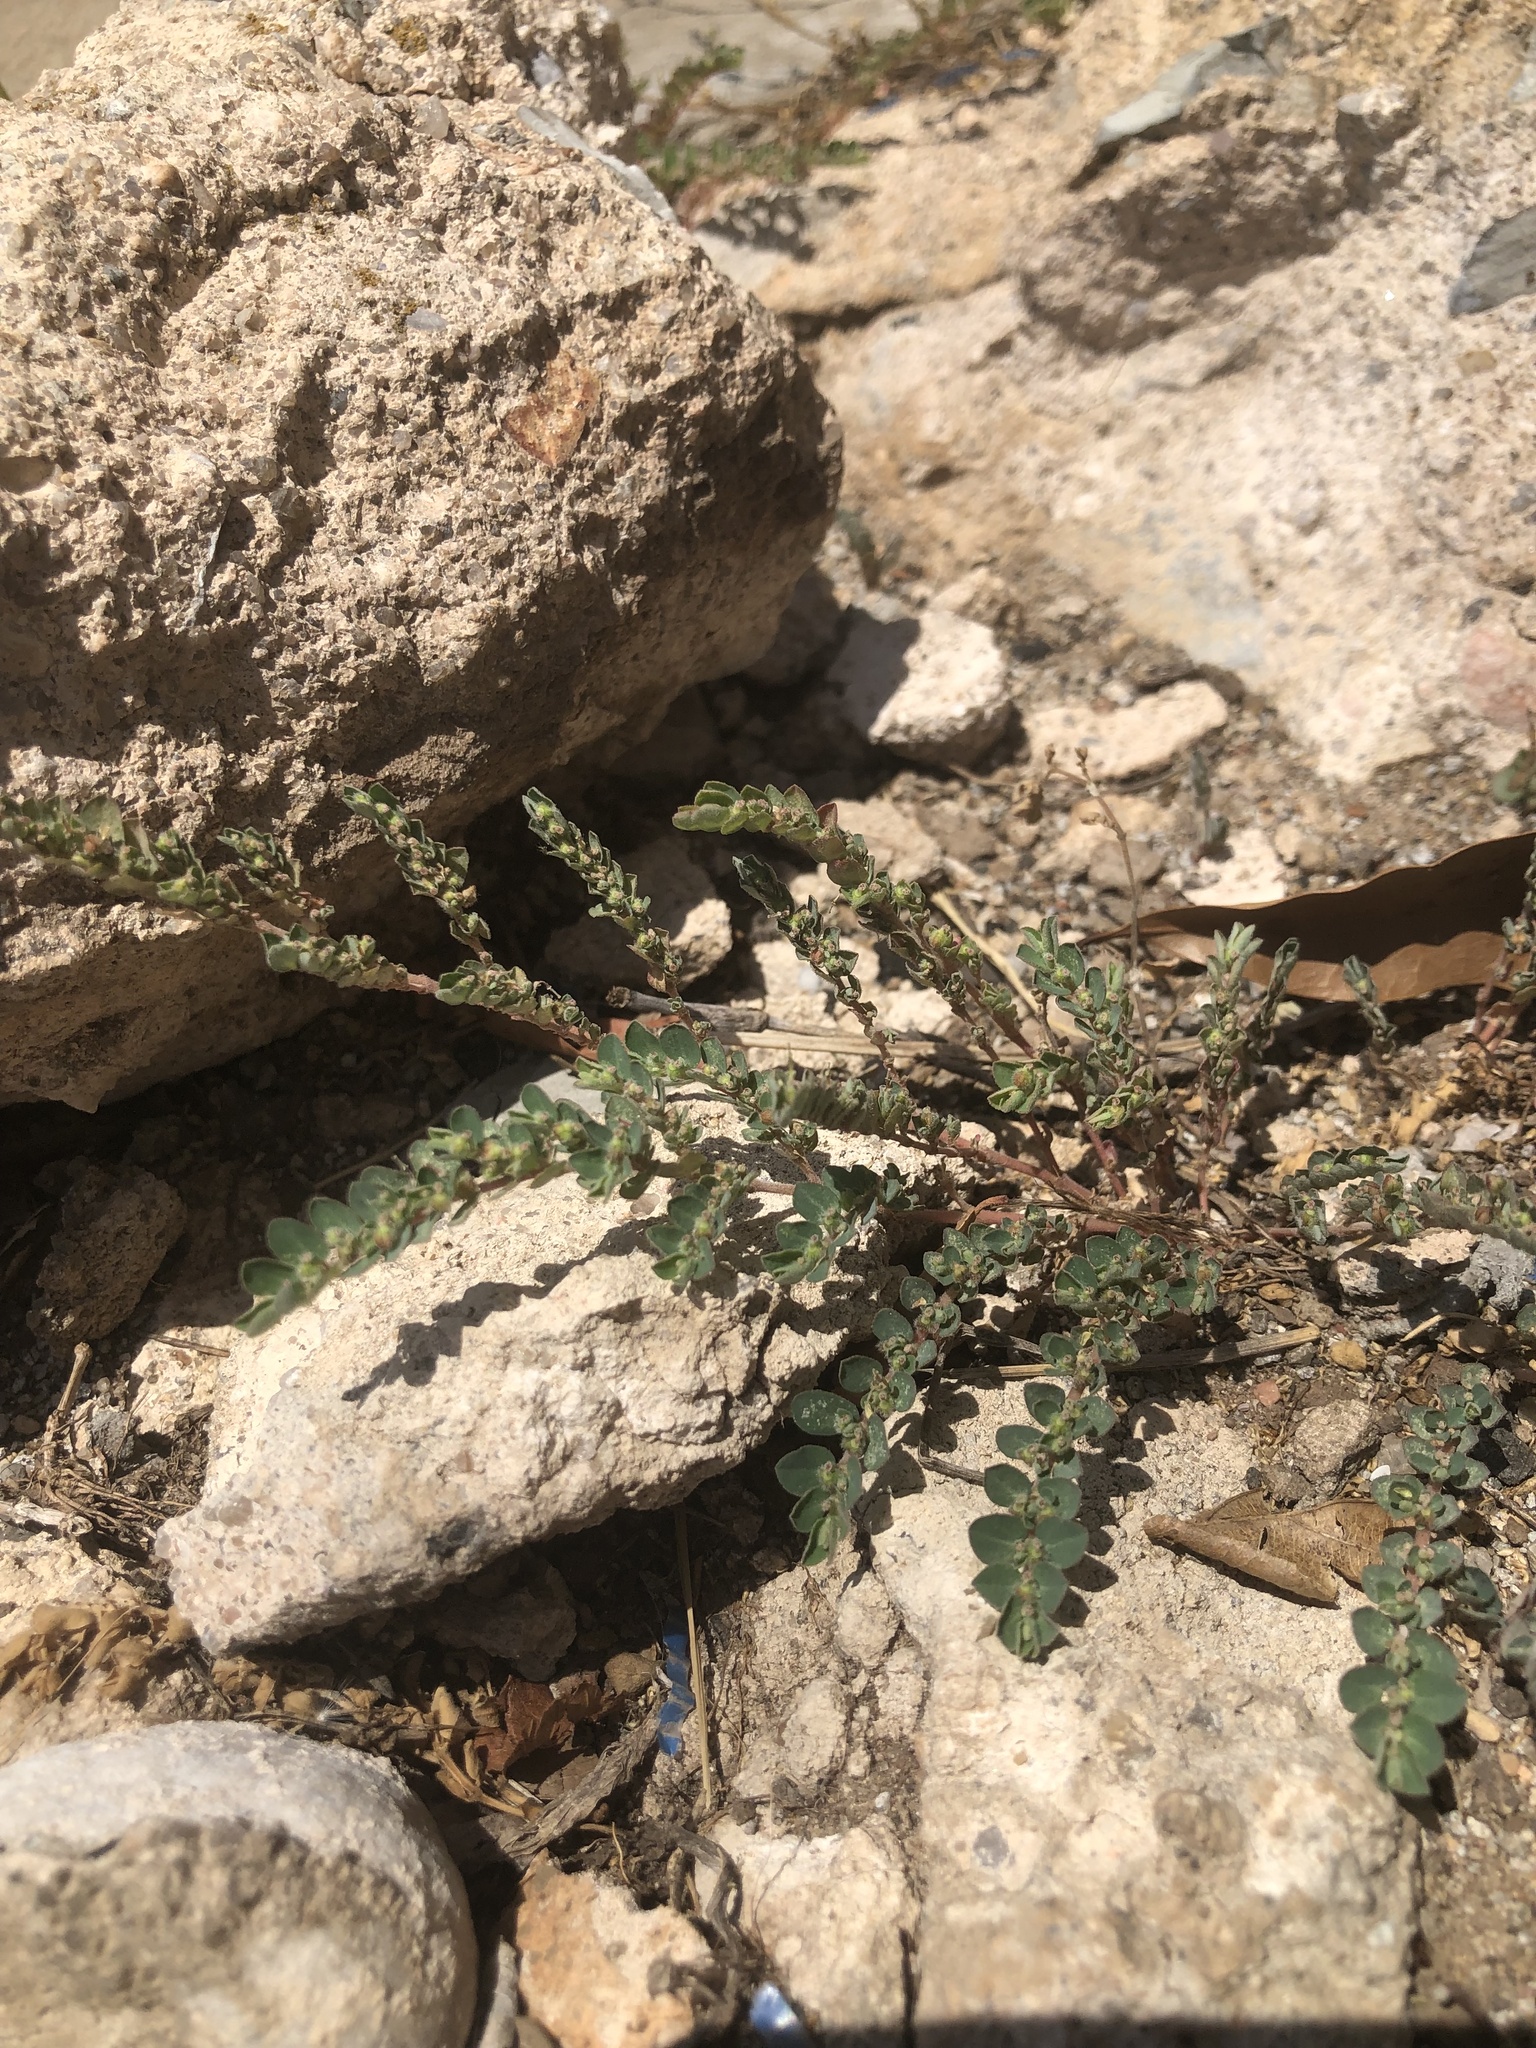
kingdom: Plantae
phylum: Tracheophyta
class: Magnoliopsida
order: Malpighiales
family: Euphorbiaceae
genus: Euphorbia
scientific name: Euphorbia prostrata
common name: Prostrate sandmat
